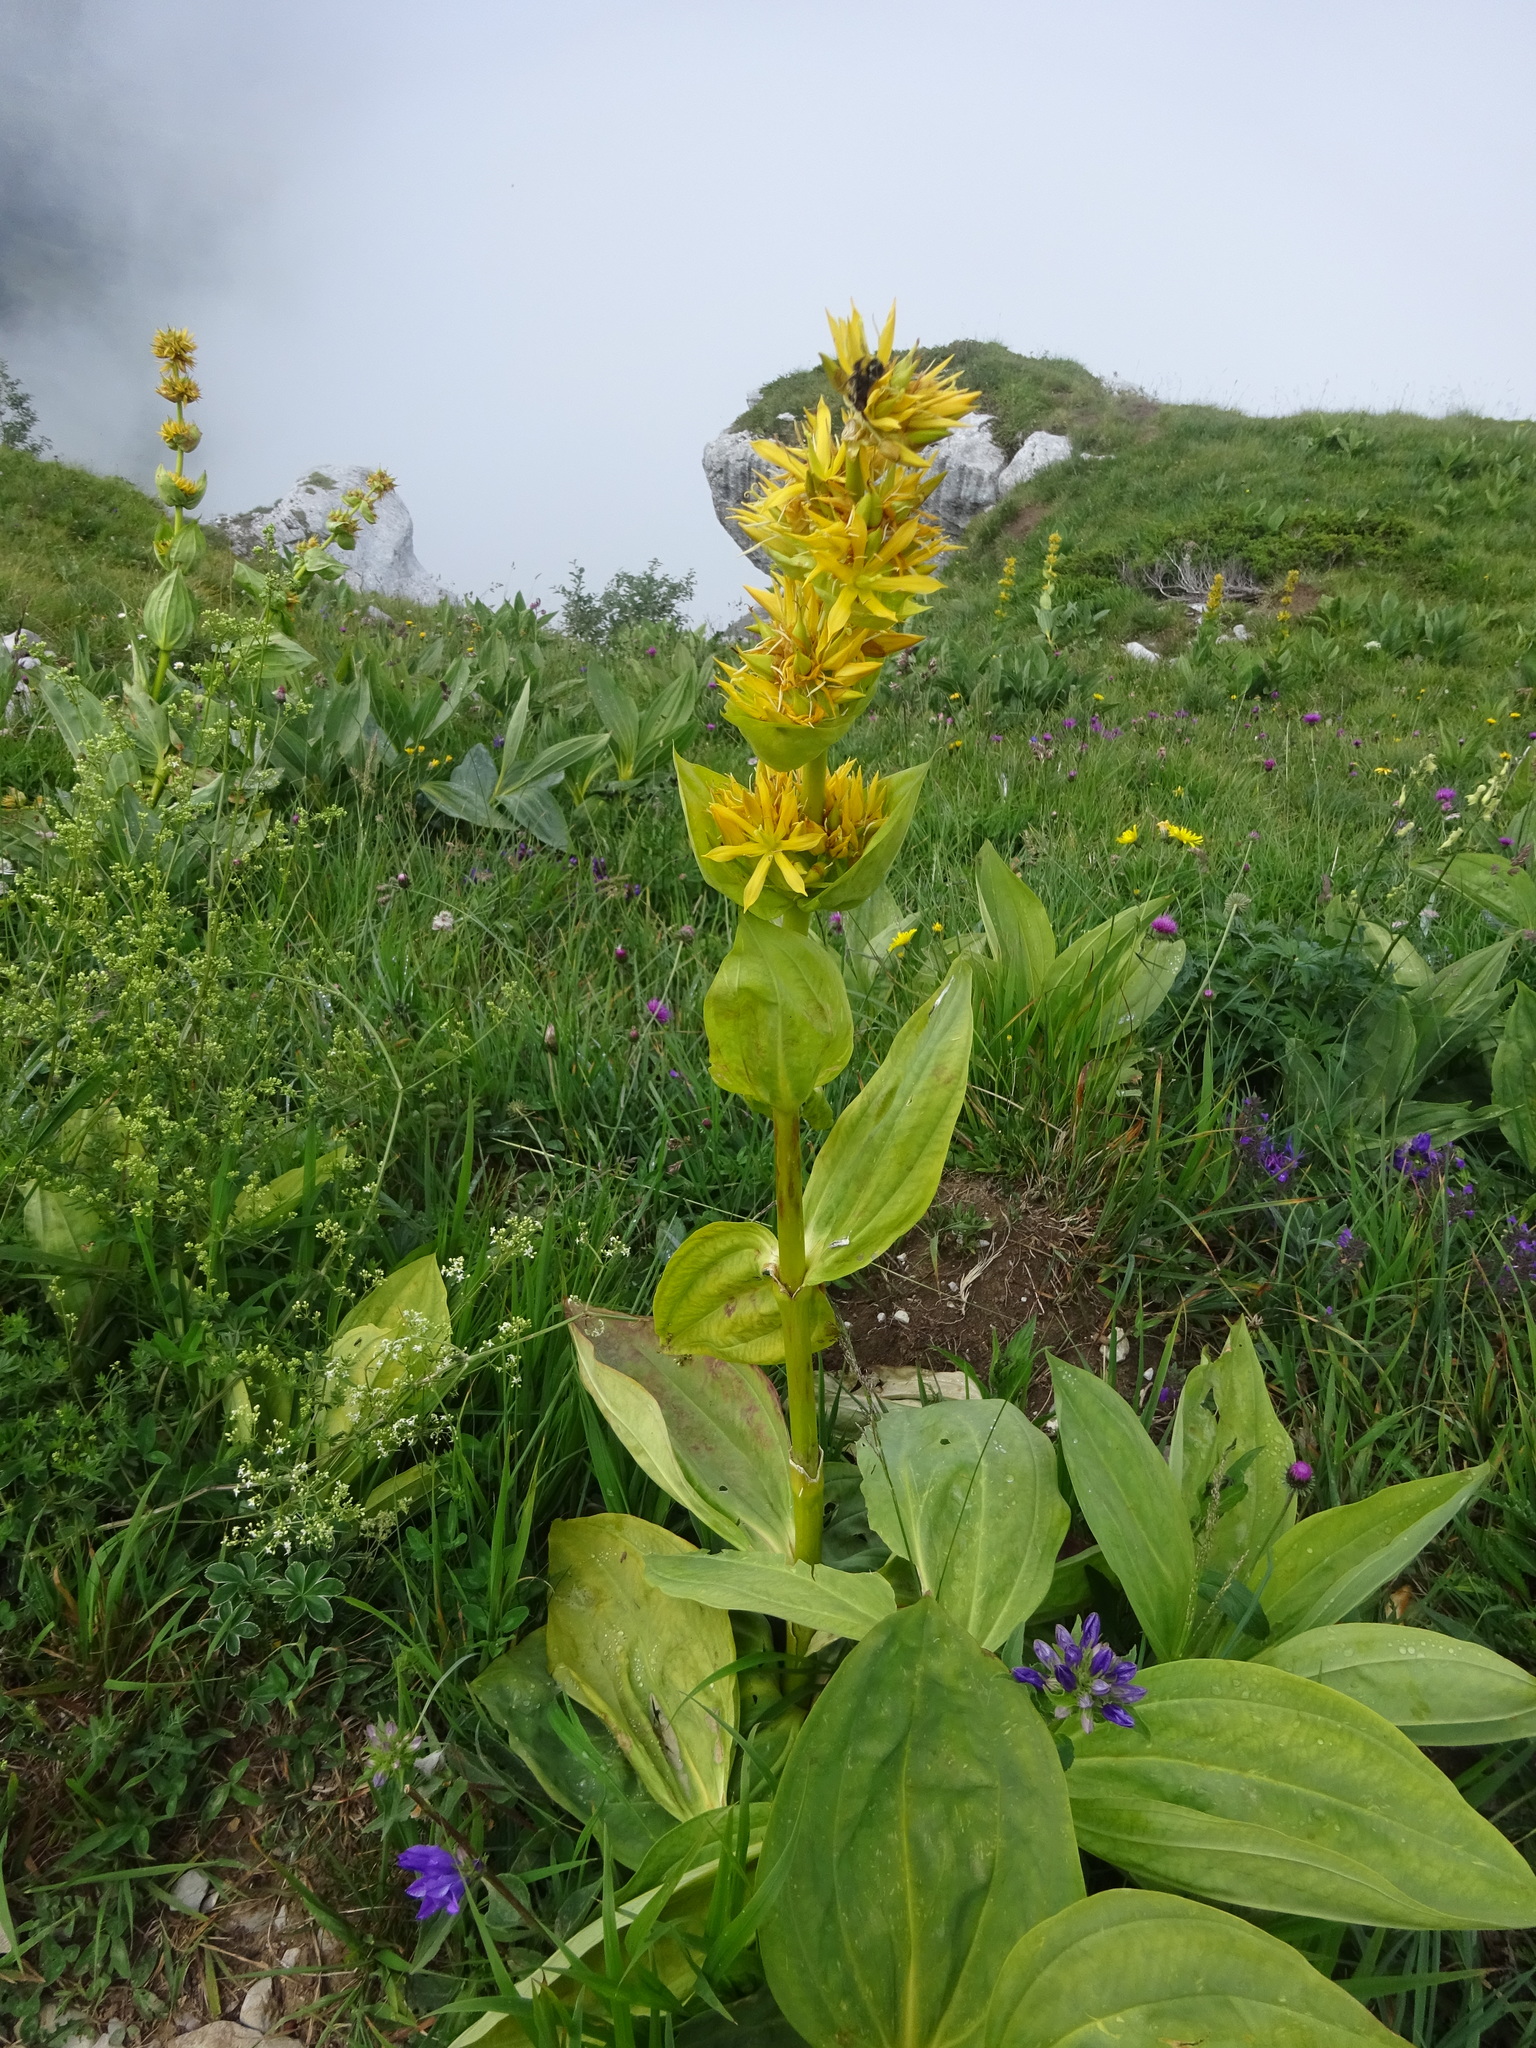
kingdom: Plantae
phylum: Tracheophyta
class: Magnoliopsida
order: Gentianales
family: Gentianaceae
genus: Gentiana
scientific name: Gentiana lutea
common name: Great yellow gentian
